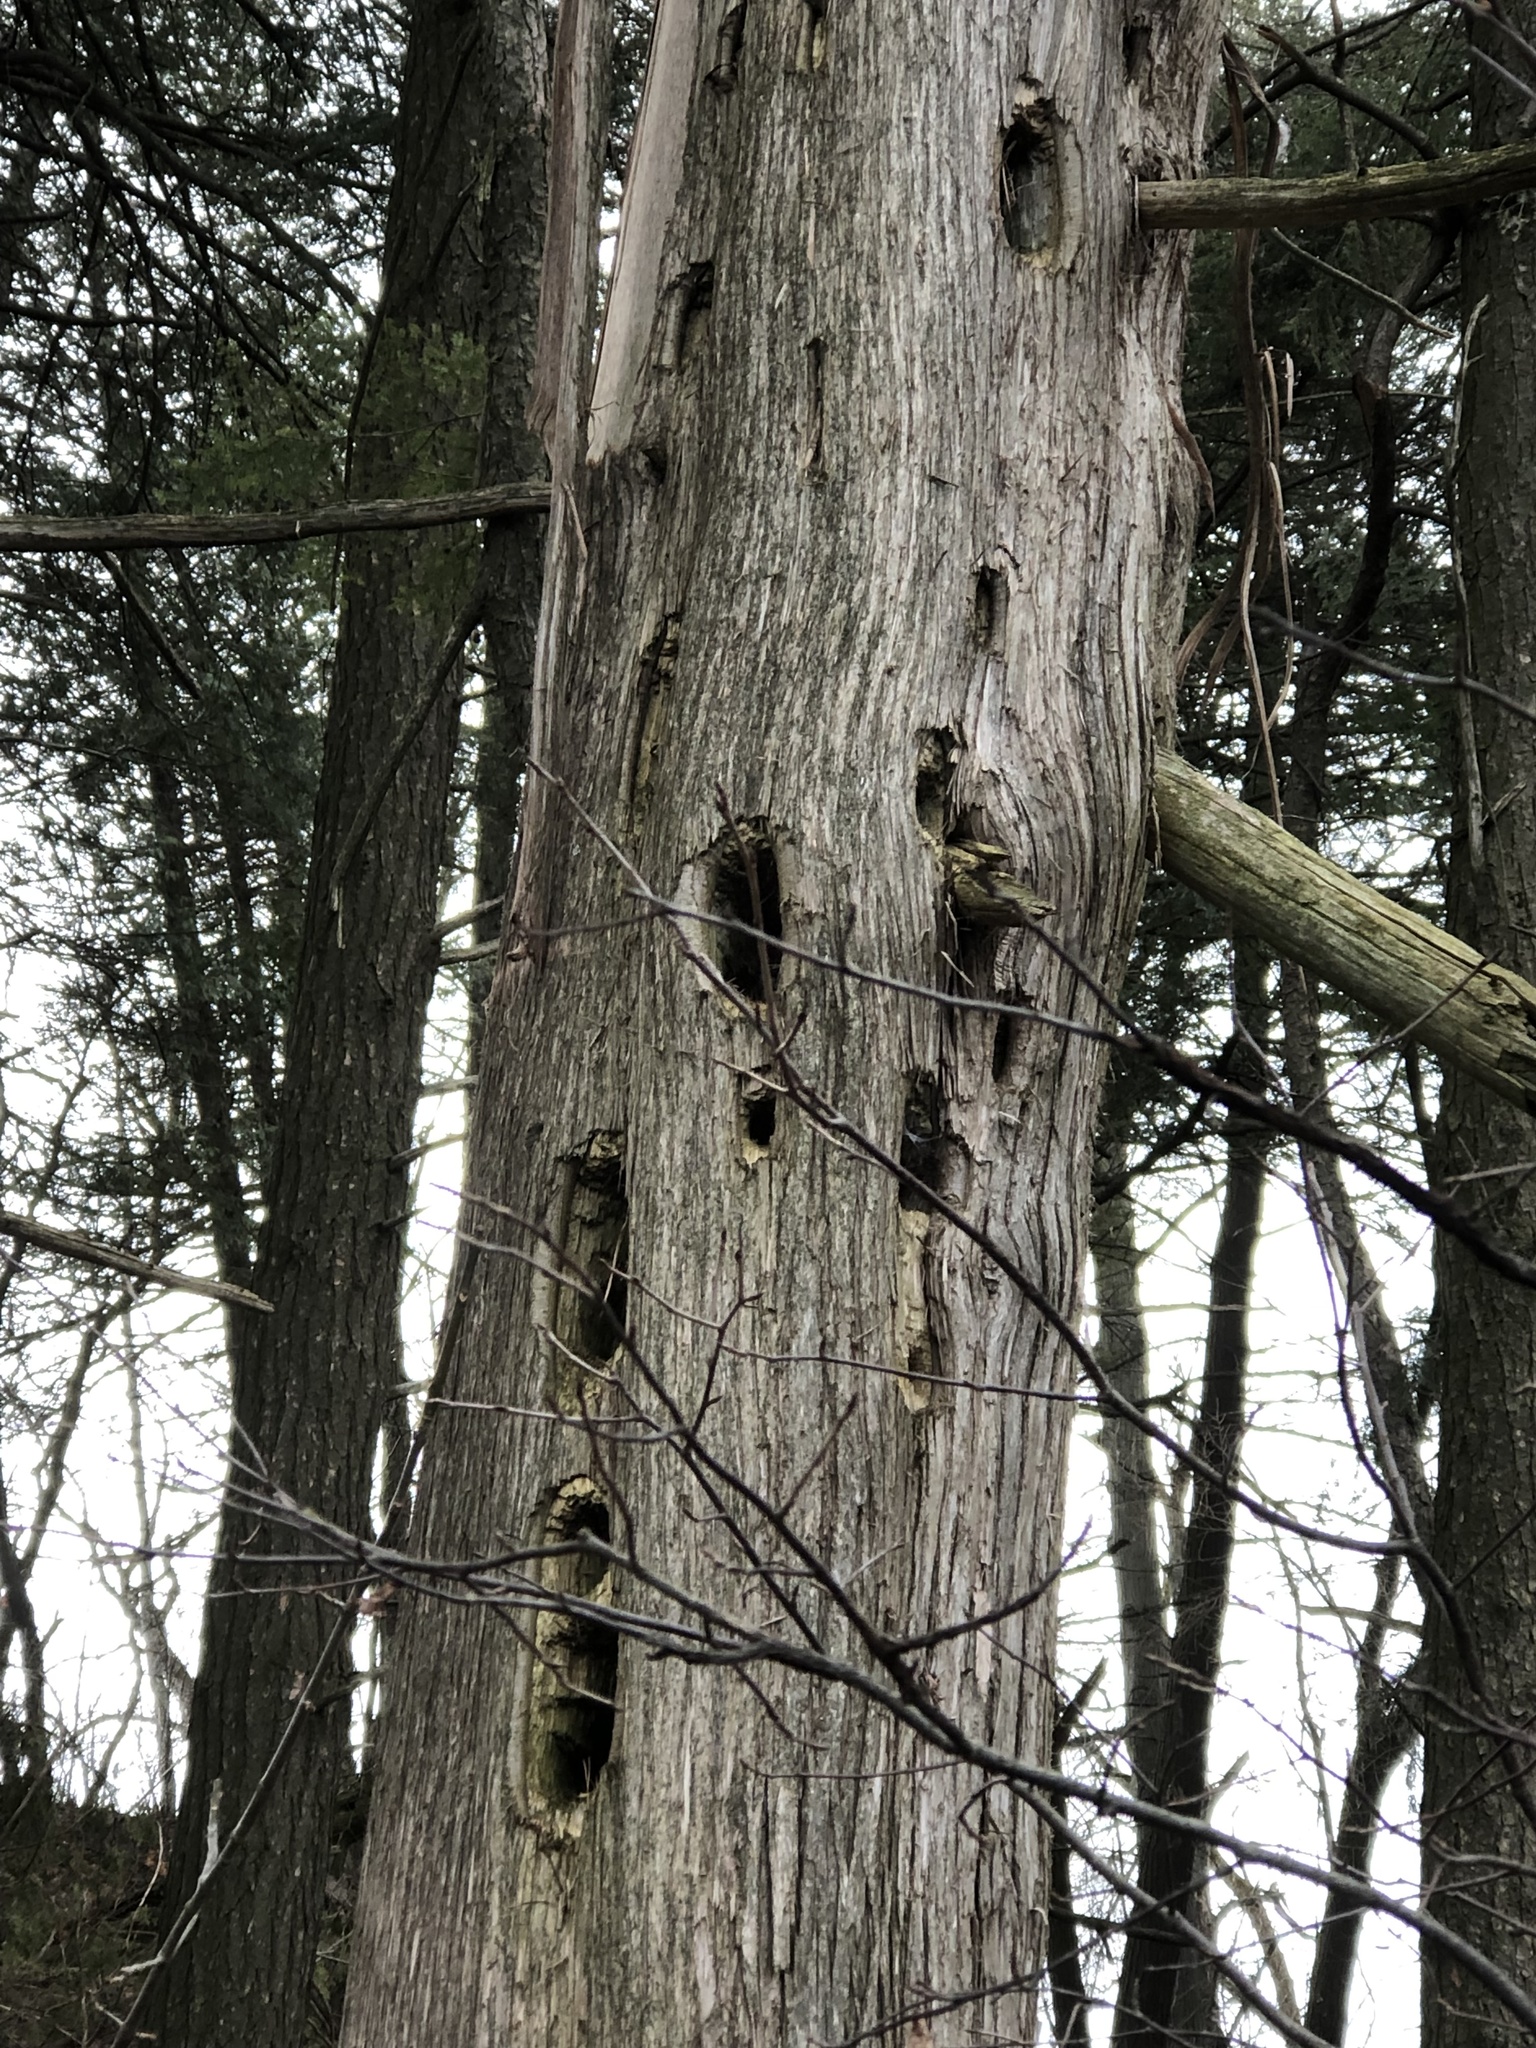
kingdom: Animalia
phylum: Chordata
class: Aves
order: Piciformes
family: Picidae
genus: Dryocopus
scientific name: Dryocopus pileatus
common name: Pileated woodpecker
